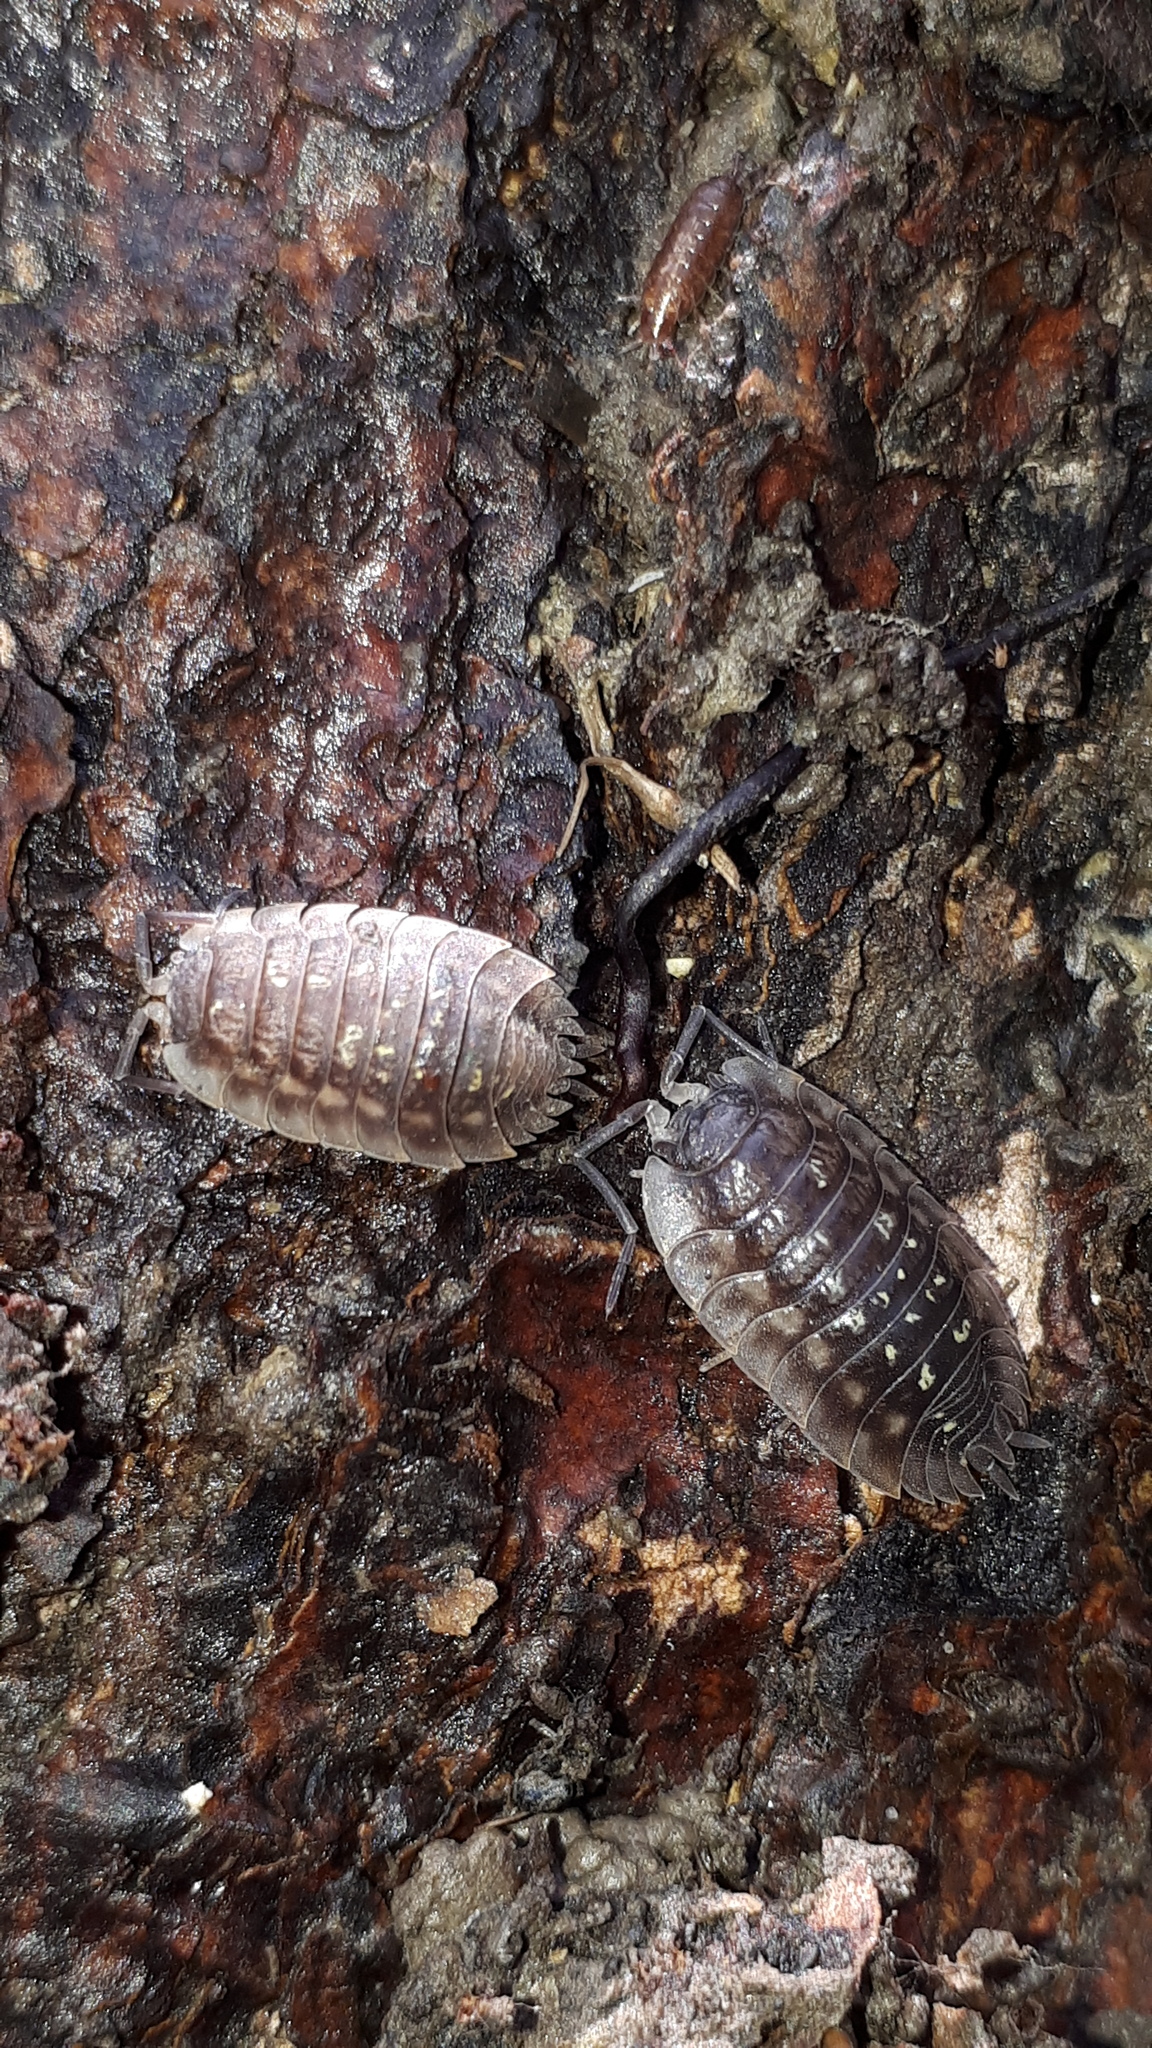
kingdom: Animalia
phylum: Arthropoda
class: Malacostraca
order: Isopoda
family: Oniscidae
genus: Oniscus
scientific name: Oniscus asellus
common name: Common shiny woodlouse
